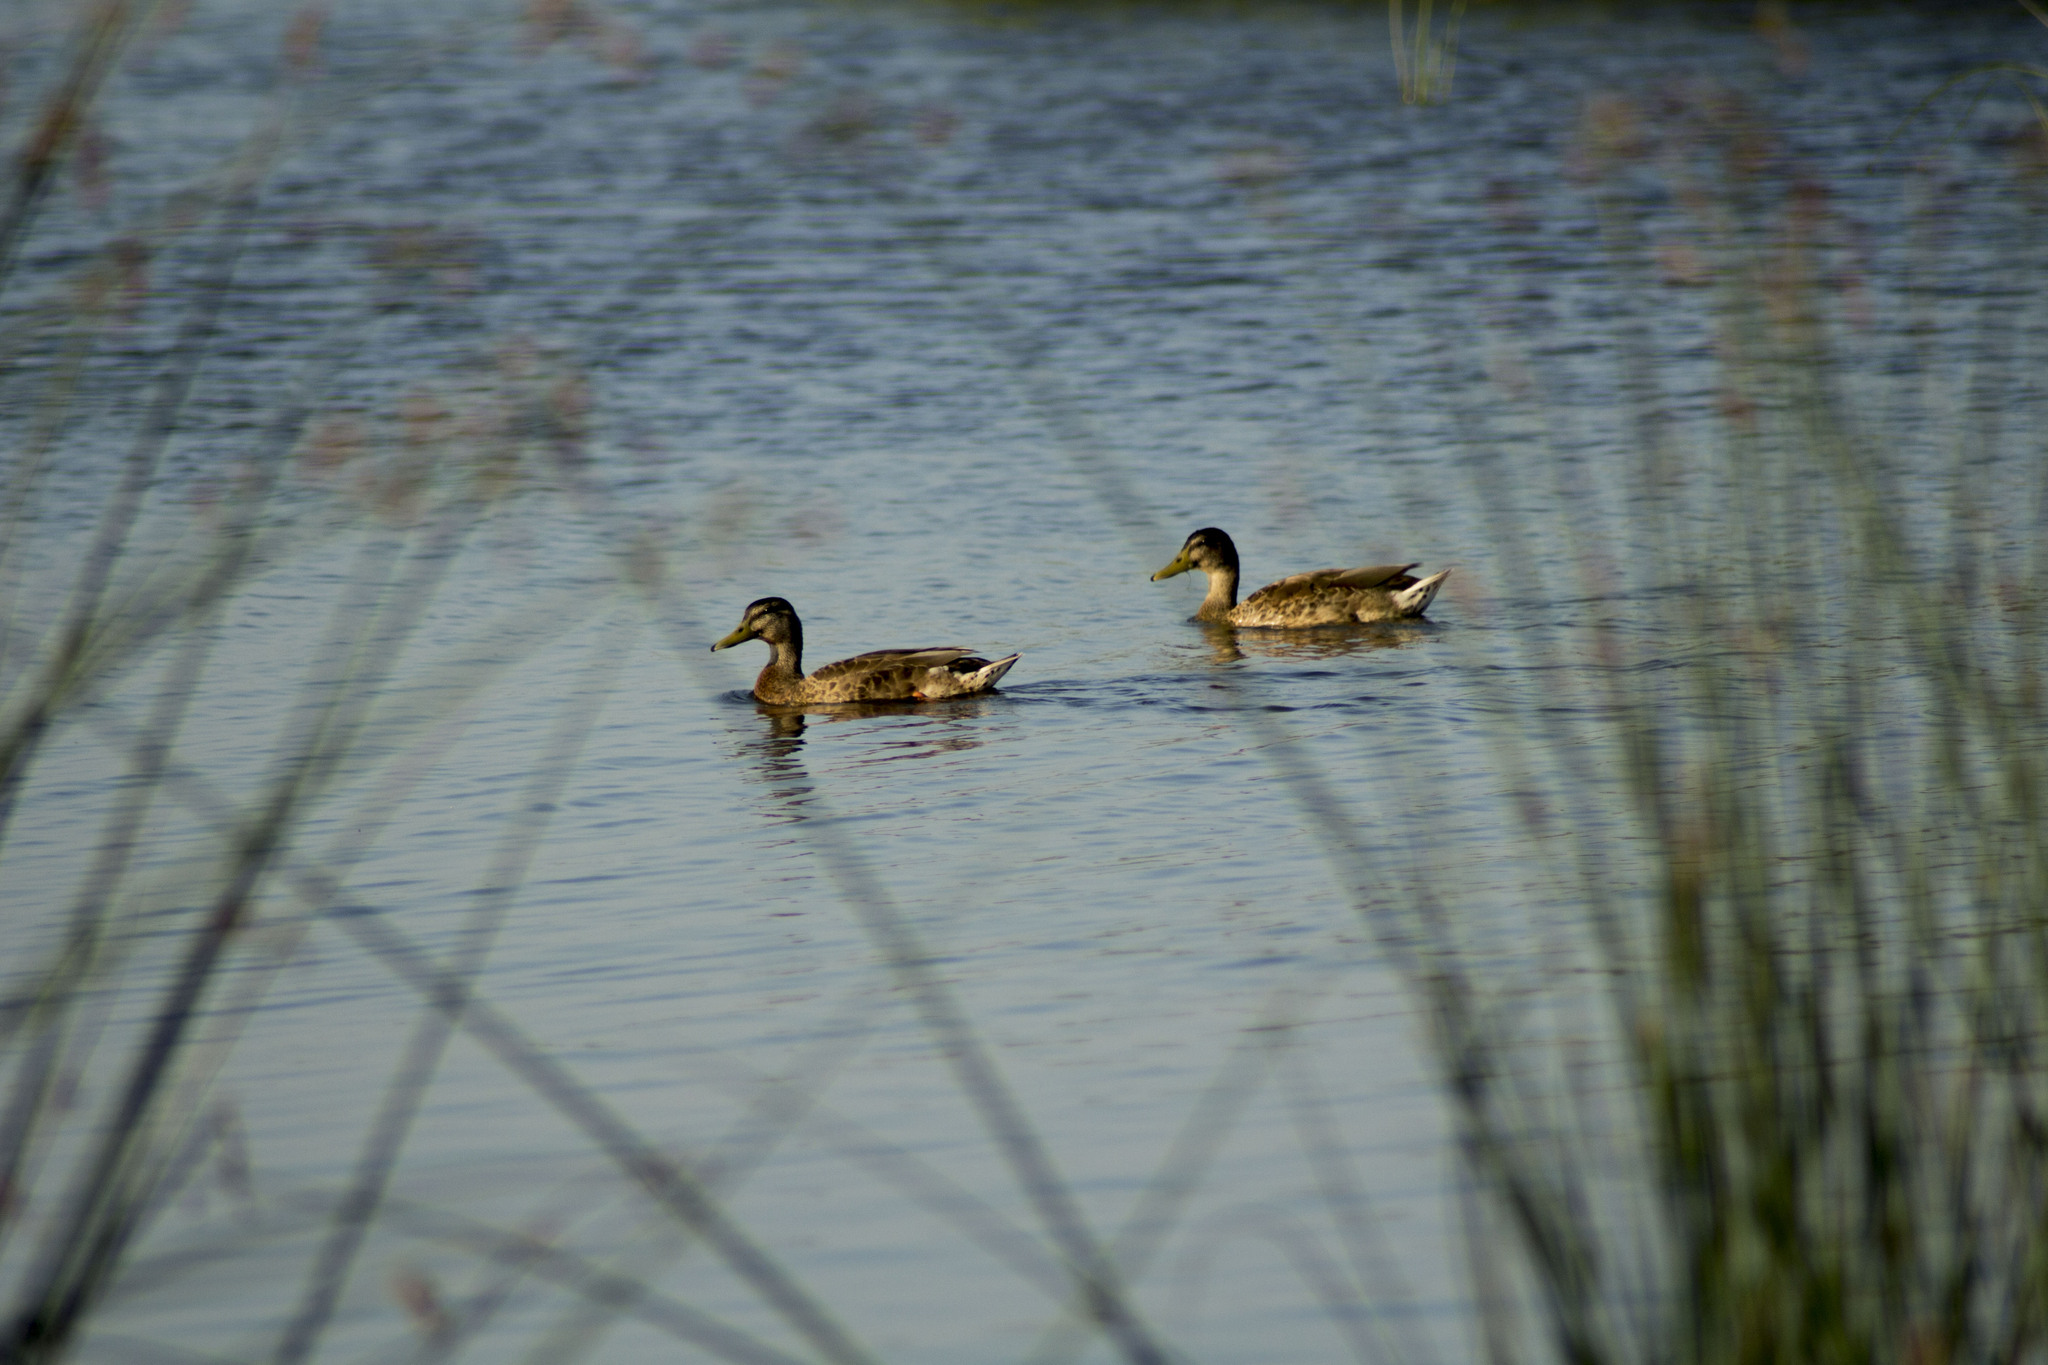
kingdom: Animalia
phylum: Chordata
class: Aves
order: Anseriformes
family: Anatidae
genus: Anas
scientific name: Anas platyrhynchos
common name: Mallard
